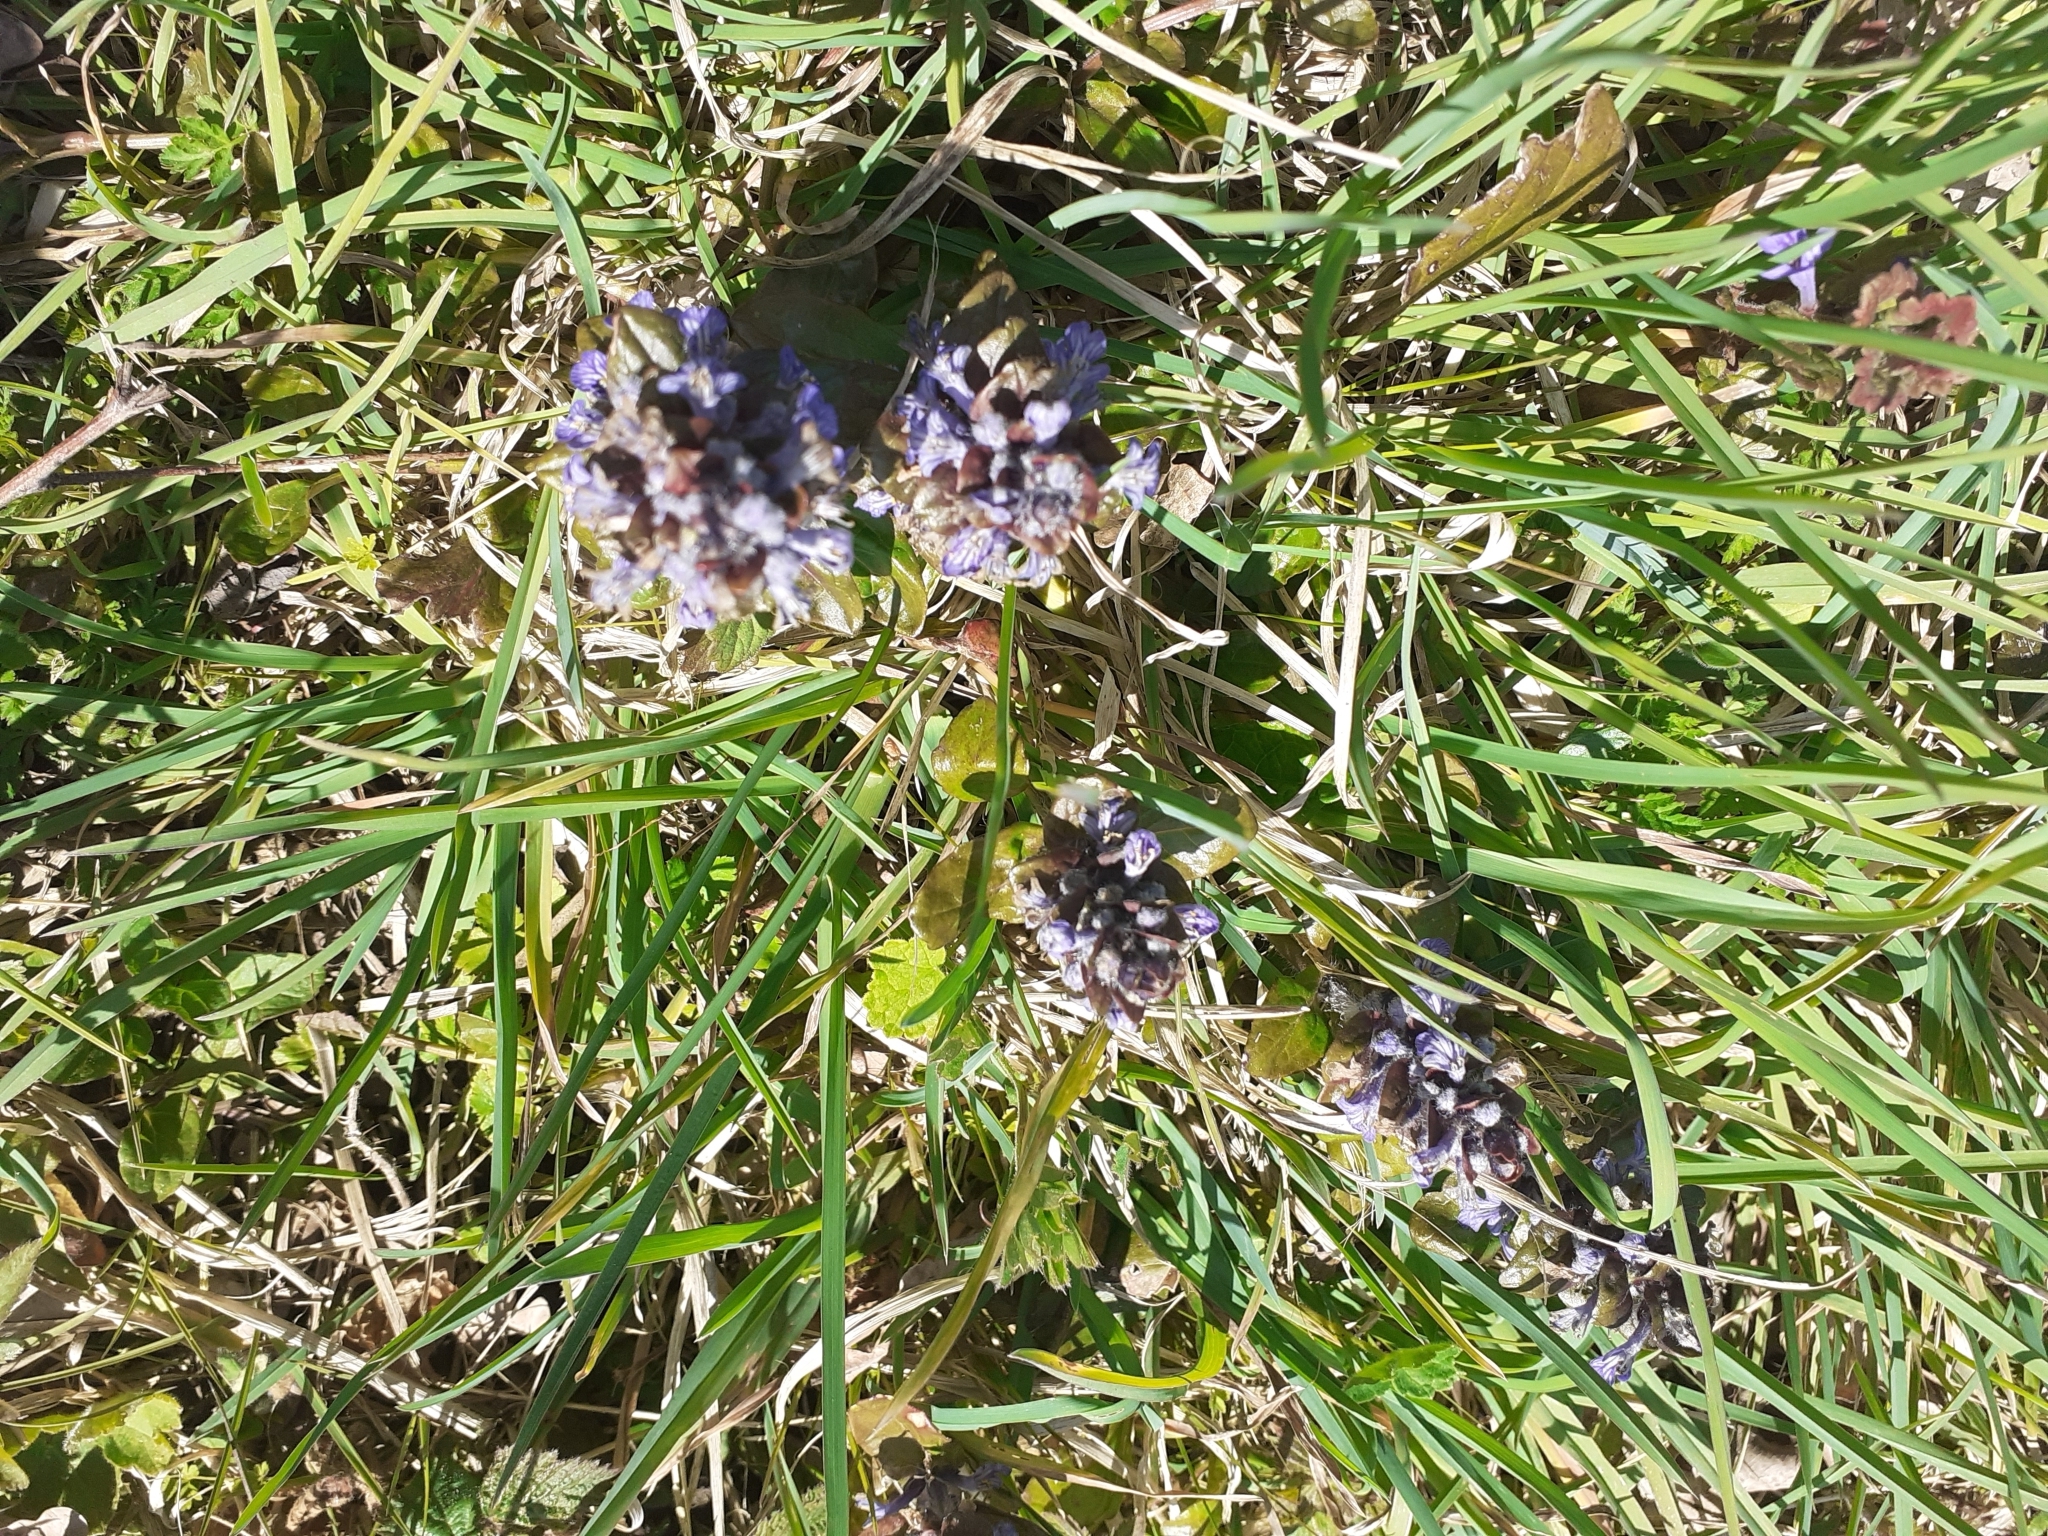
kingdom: Plantae
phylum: Tracheophyta
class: Magnoliopsida
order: Lamiales
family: Lamiaceae
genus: Ajuga
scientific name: Ajuga reptans
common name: Bugle
